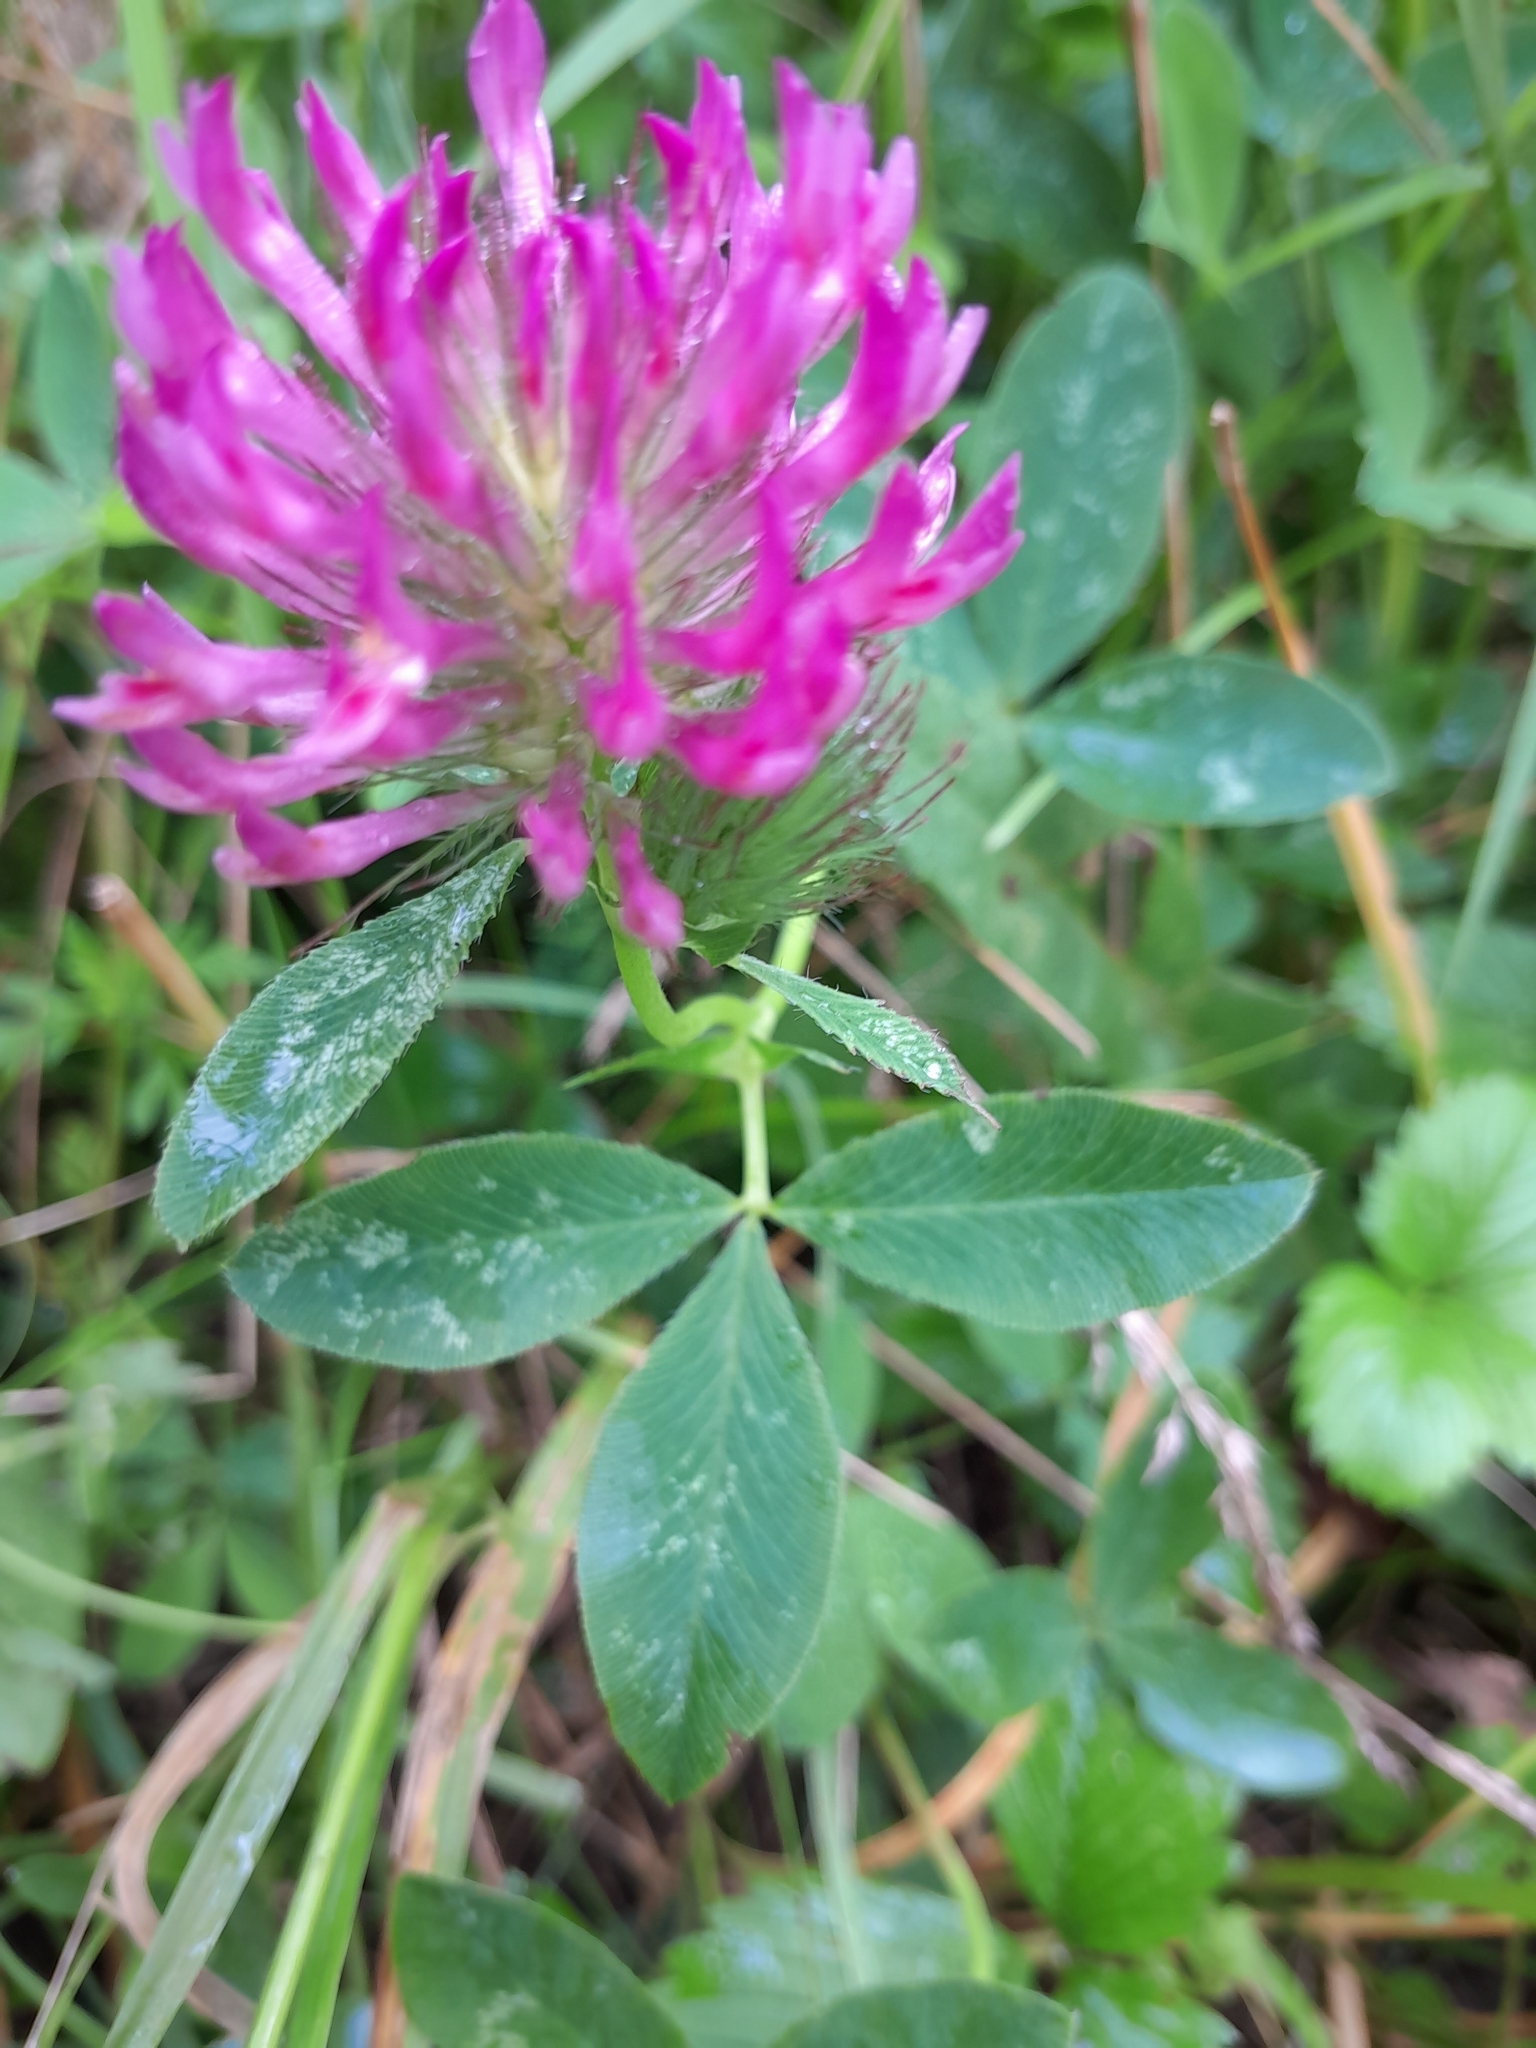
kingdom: Plantae
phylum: Tracheophyta
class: Magnoliopsida
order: Fabales
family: Fabaceae
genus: Trifolium
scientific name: Trifolium medium
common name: Zigzag clover
